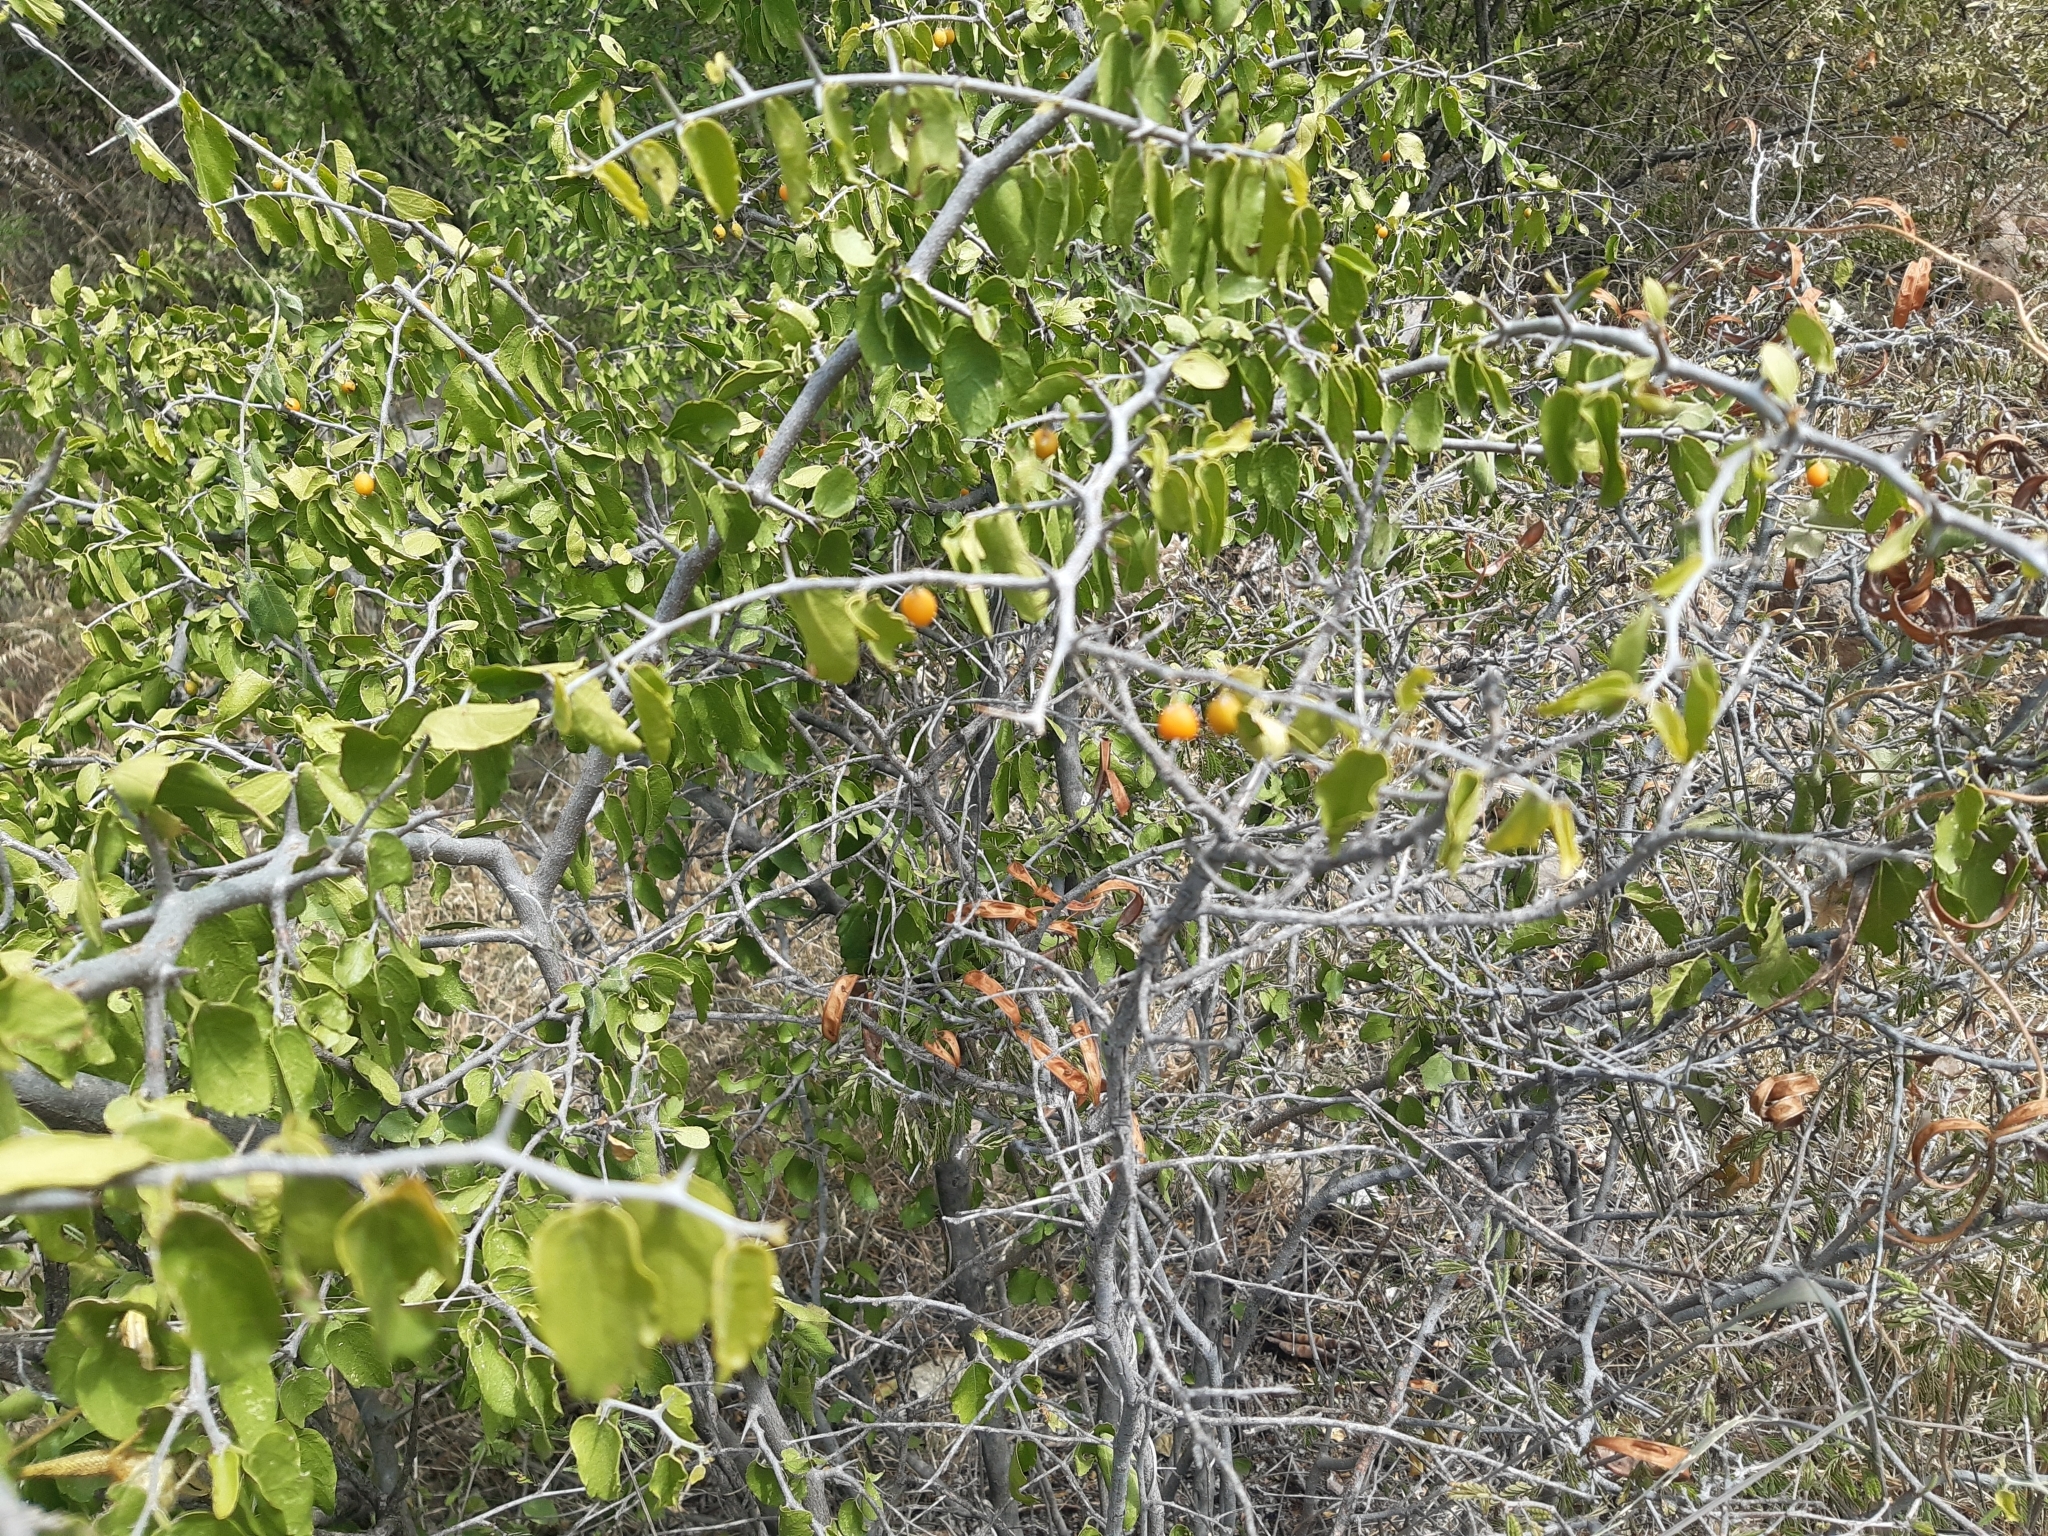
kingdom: Plantae
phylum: Tracheophyta
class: Magnoliopsida
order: Rosales
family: Cannabaceae
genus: Celtis
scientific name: Celtis pallida
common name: Desert hackberry
